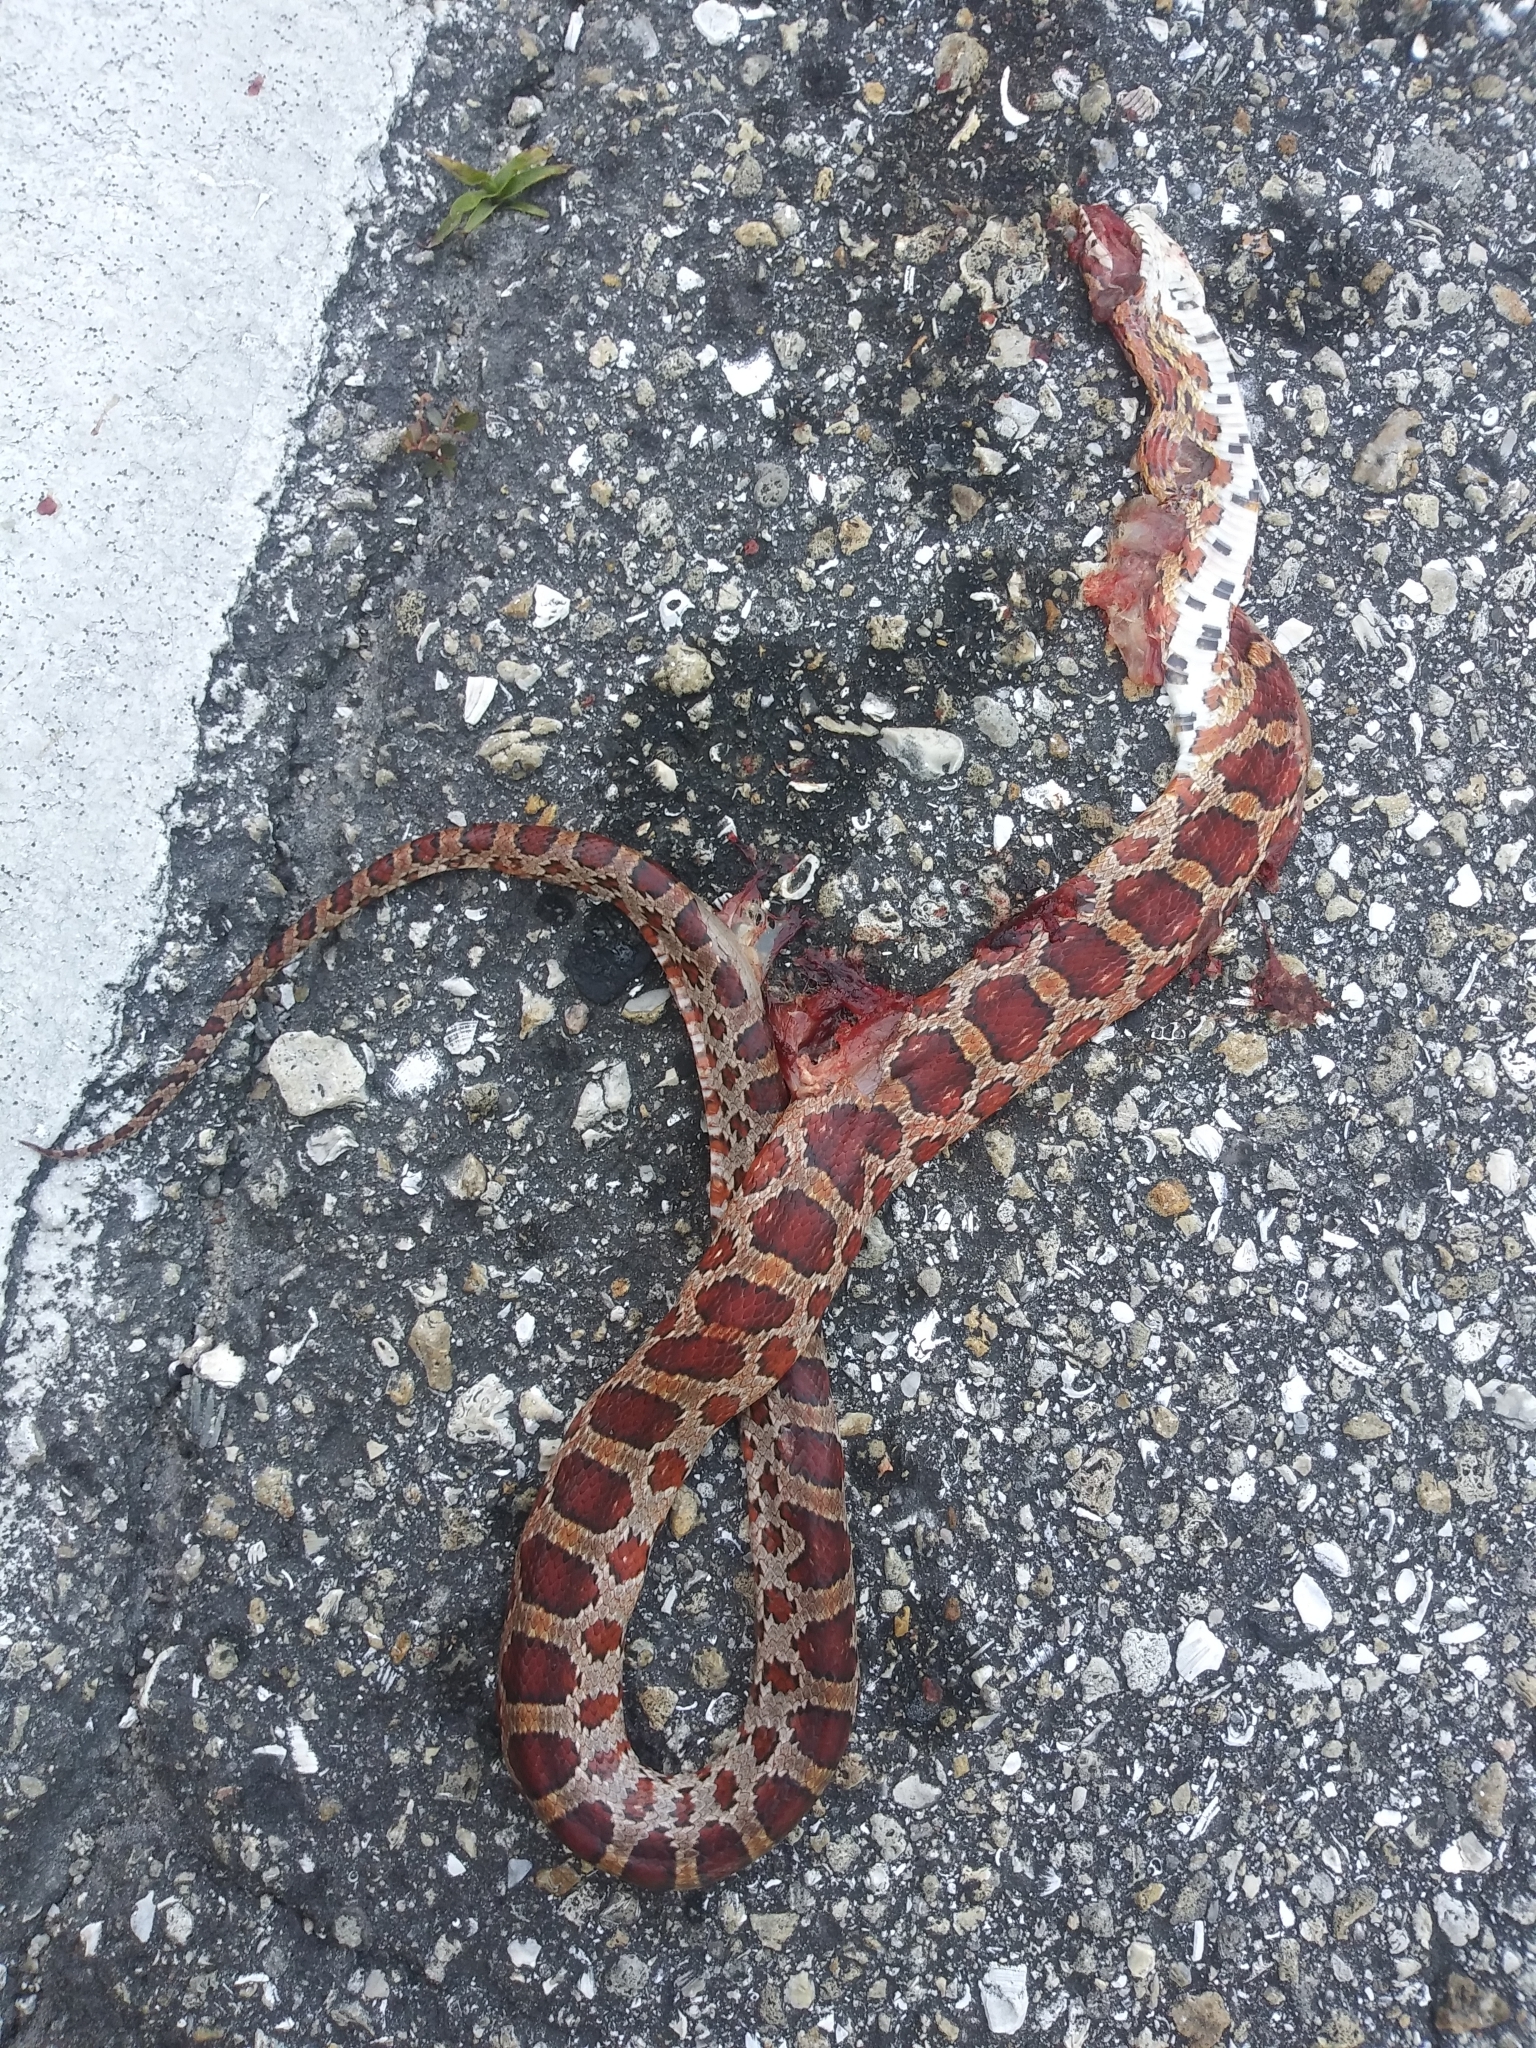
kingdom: Animalia
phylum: Chordata
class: Squamata
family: Colubridae
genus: Pantherophis
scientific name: Pantherophis guttatus
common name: Red cornsnake
